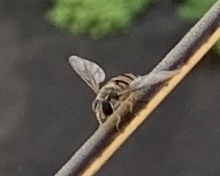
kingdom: Animalia
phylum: Arthropoda
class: Insecta
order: Diptera
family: Syrphidae
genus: Episyrphus
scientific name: Episyrphus balteatus
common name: Marmalade hoverfly
